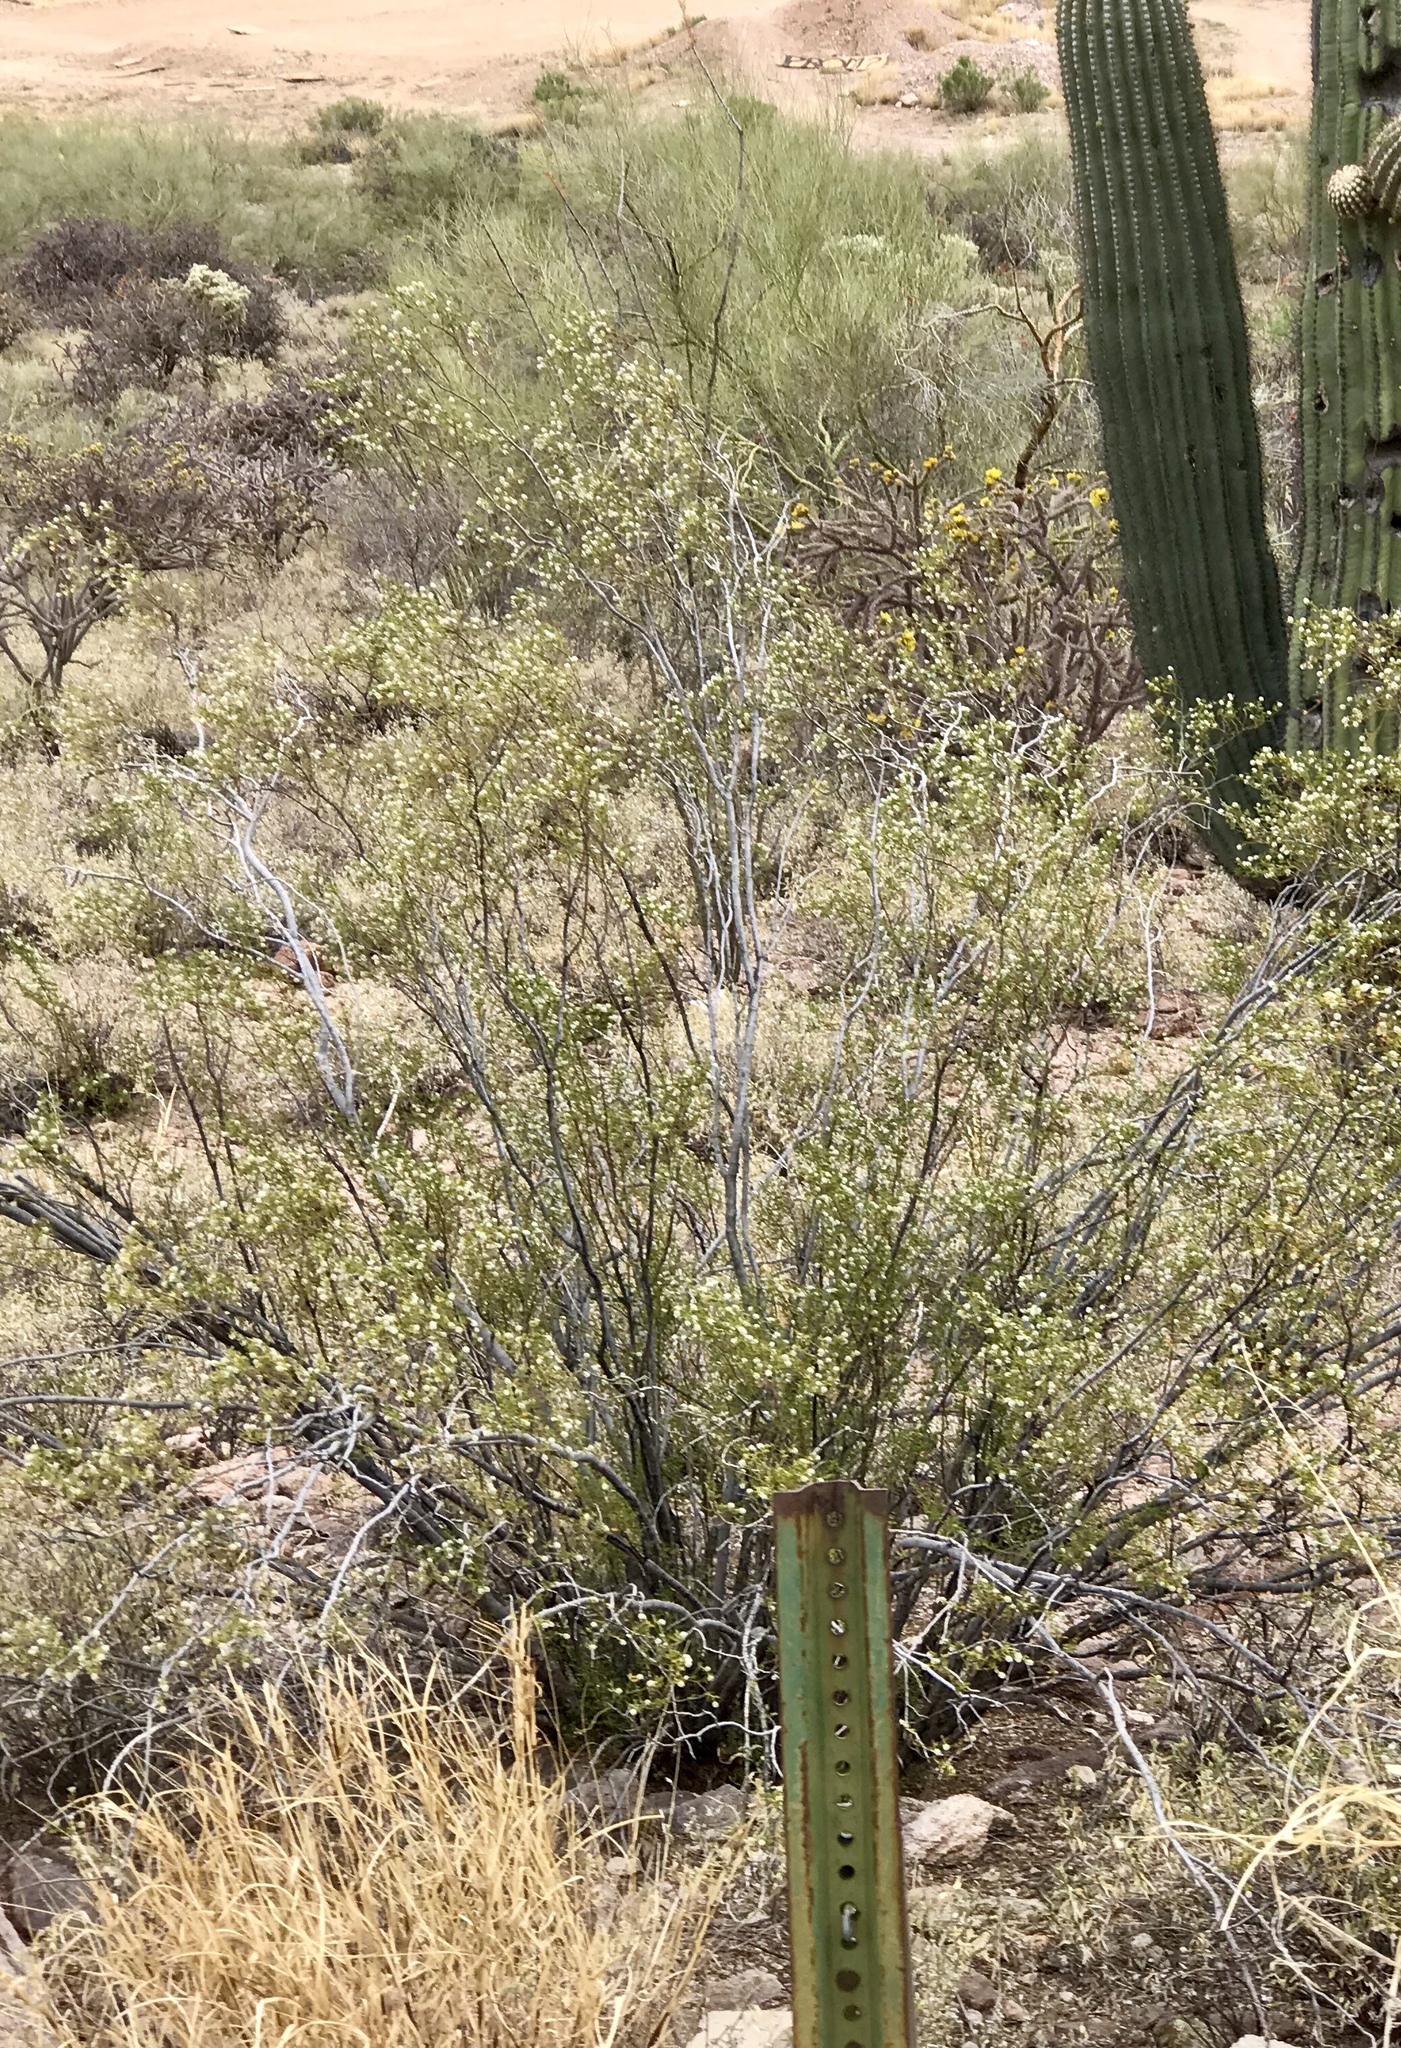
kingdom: Plantae
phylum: Tracheophyta
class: Magnoliopsida
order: Zygophyllales
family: Zygophyllaceae
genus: Larrea
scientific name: Larrea tridentata
